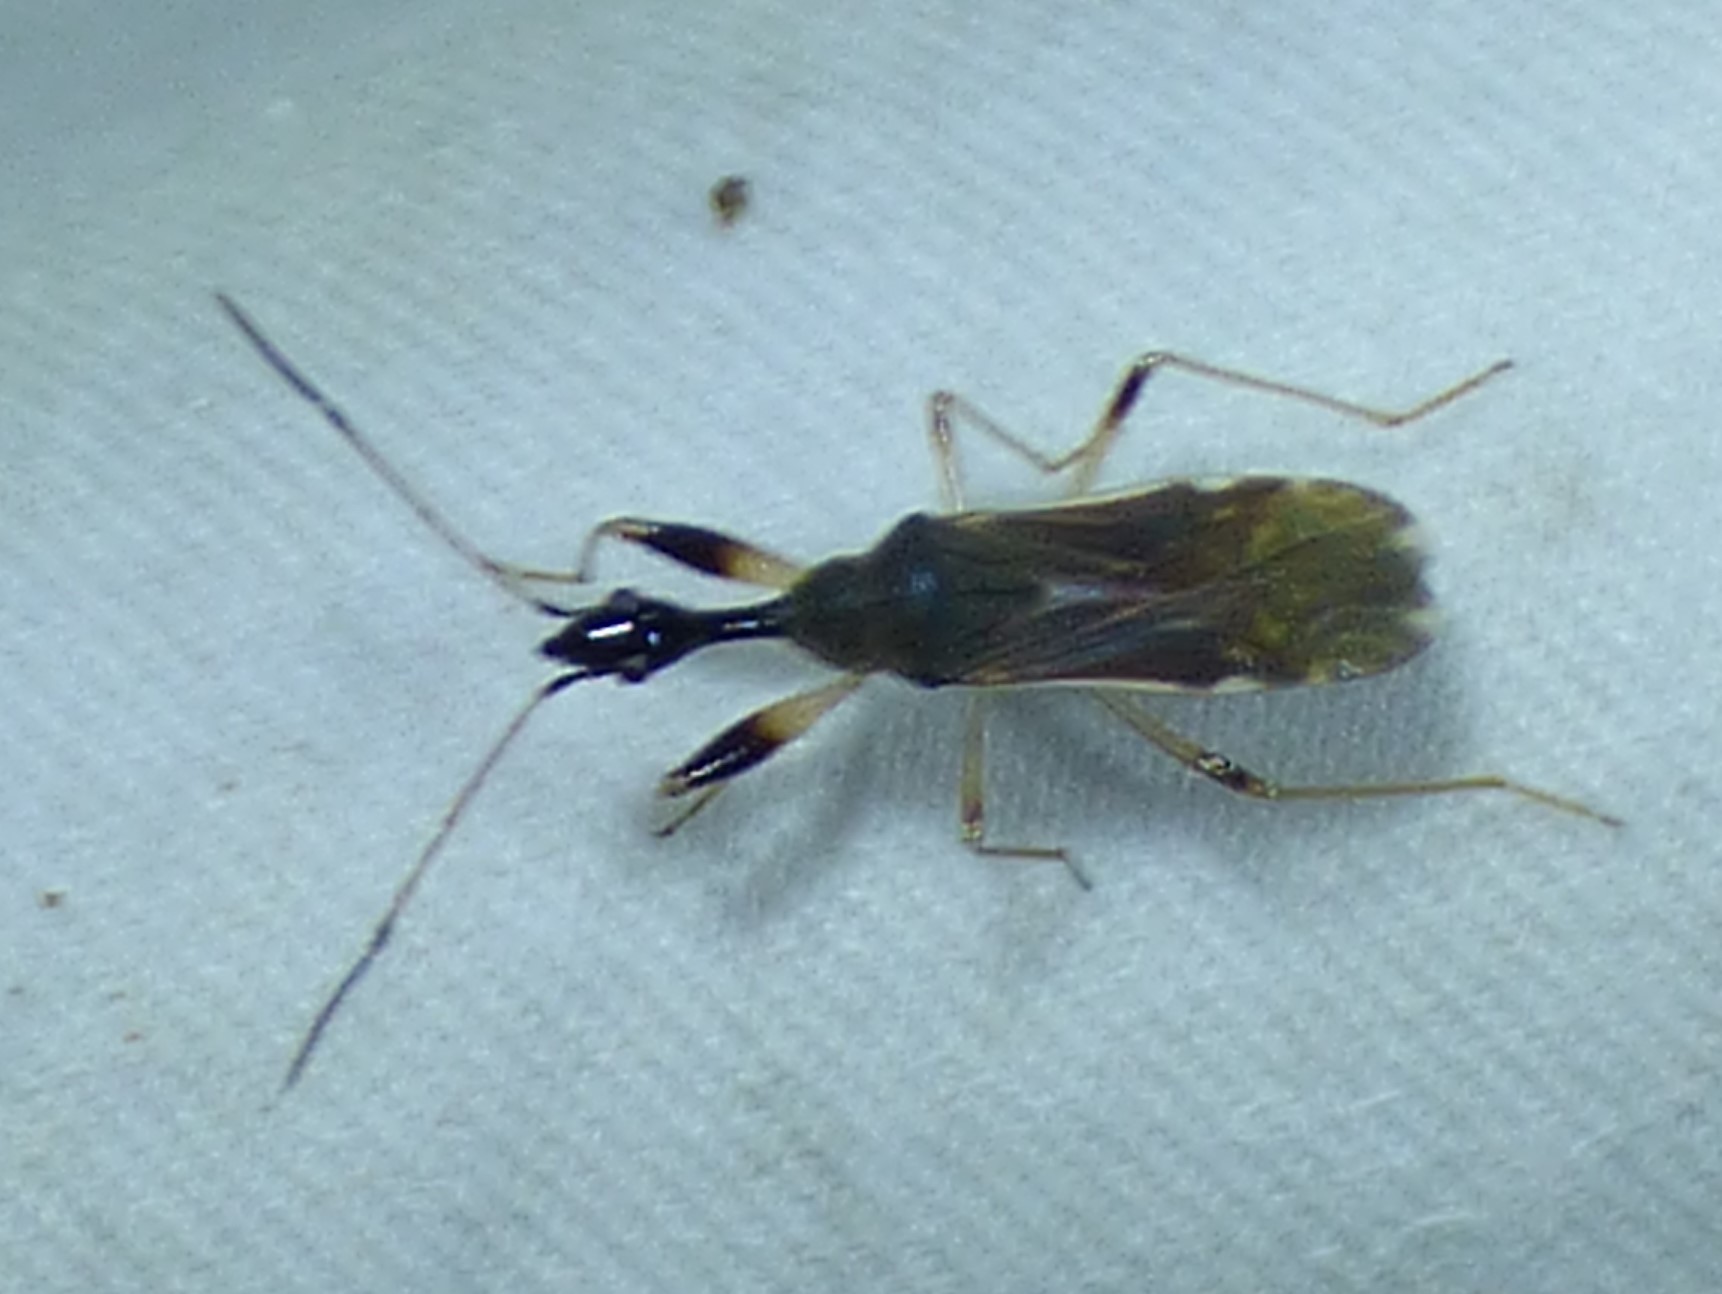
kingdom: Animalia
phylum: Arthropoda
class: Insecta
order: Hemiptera
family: Rhyparochromidae
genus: Myodocha
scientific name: Myodocha serripes
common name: Long-necked seed bug
